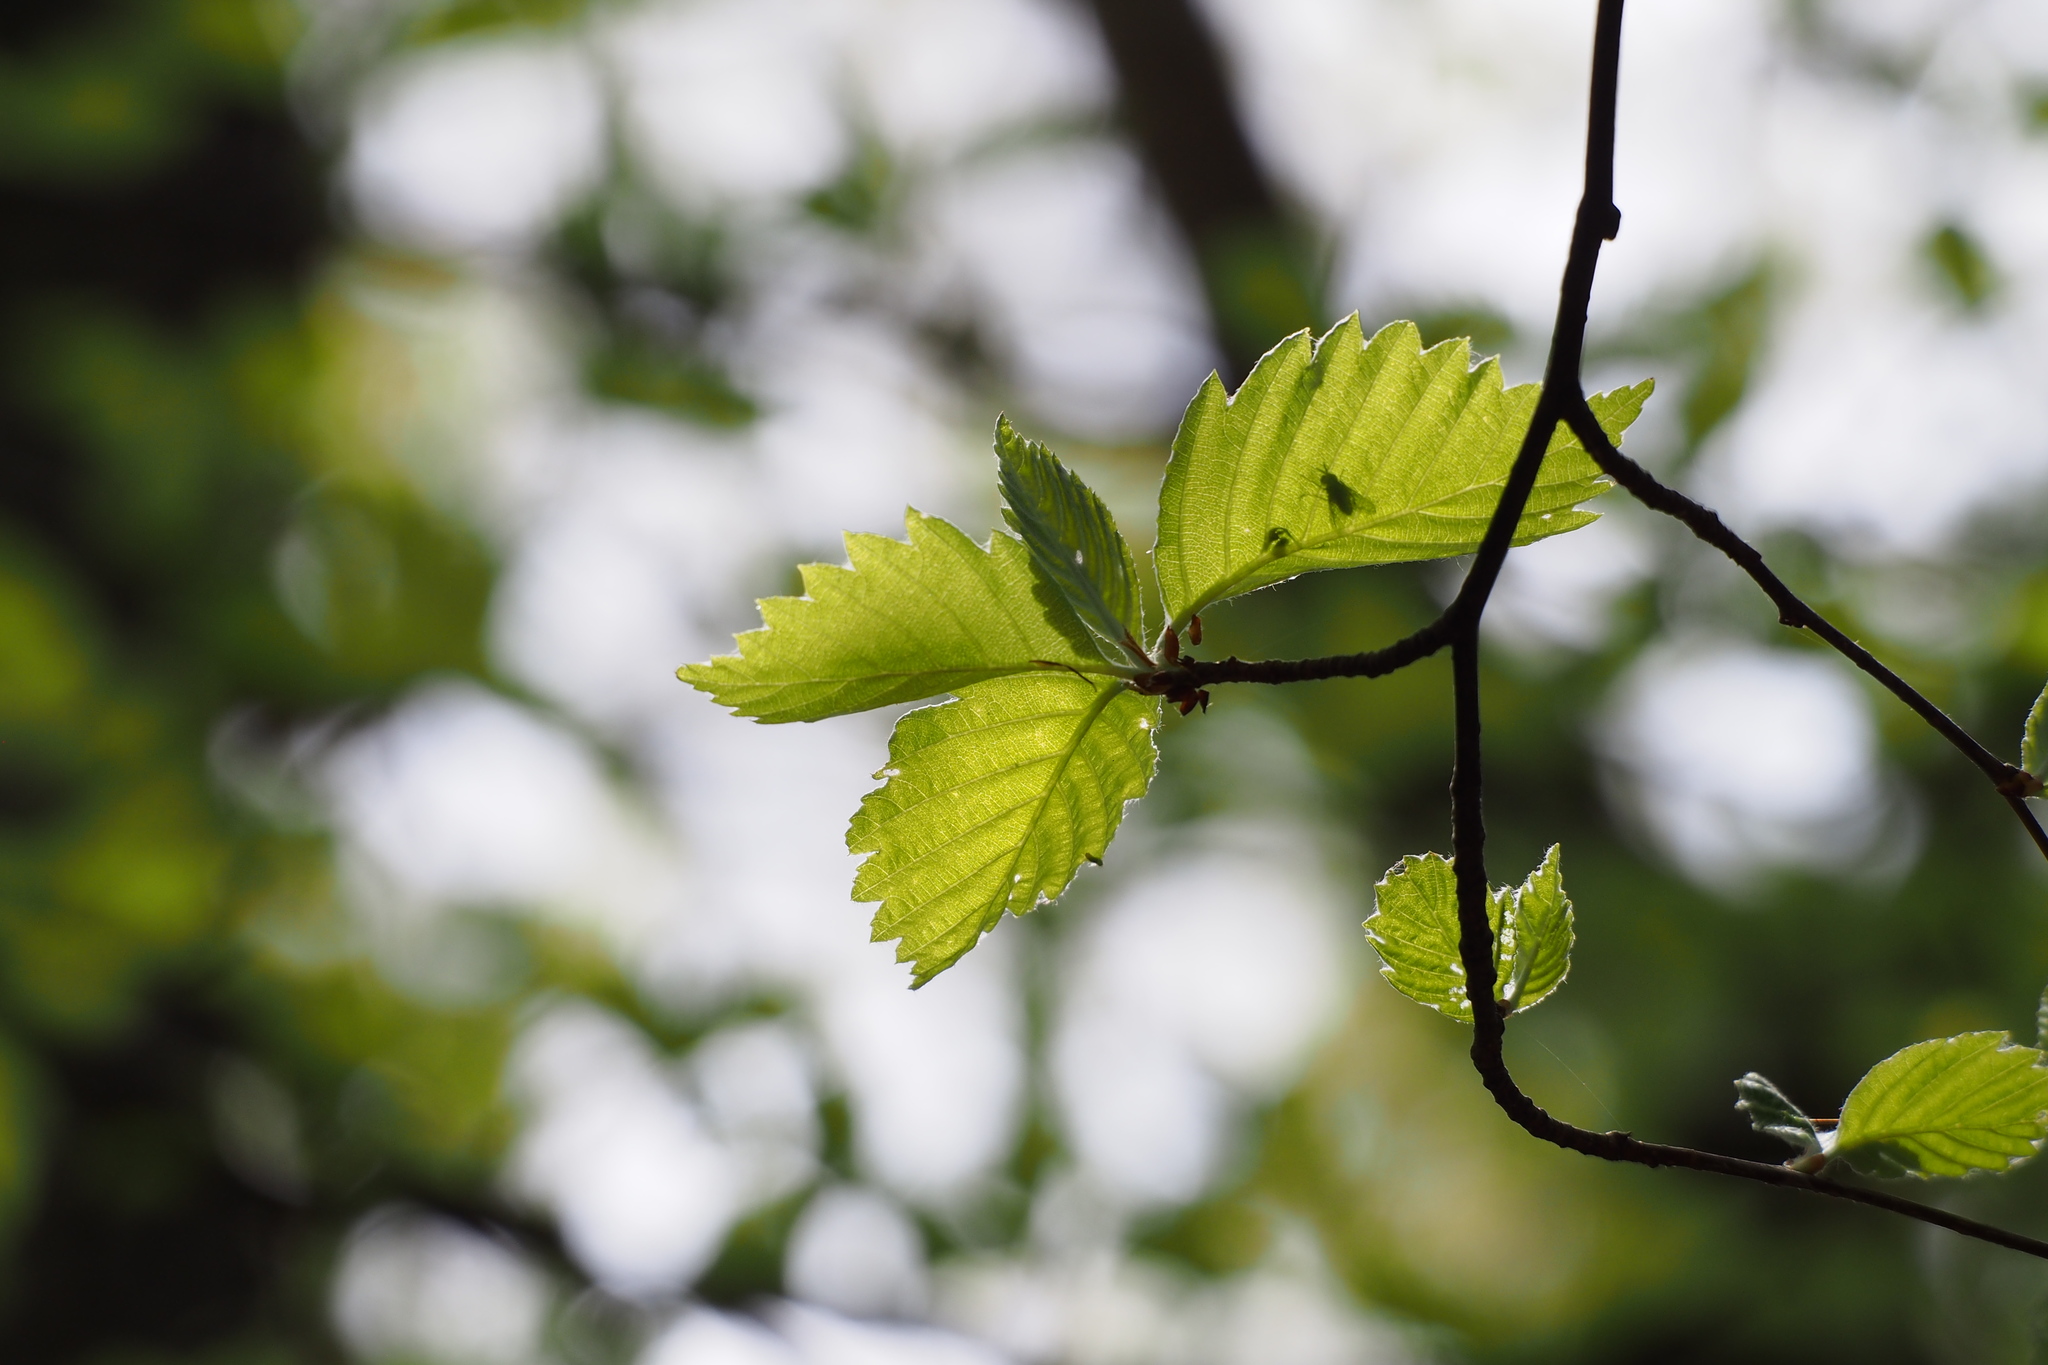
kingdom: Plantae
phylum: Tracheophyta
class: Magnoliopsida
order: Rosales
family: Rosaceae
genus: Sorbus
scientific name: Sorbus japonica
